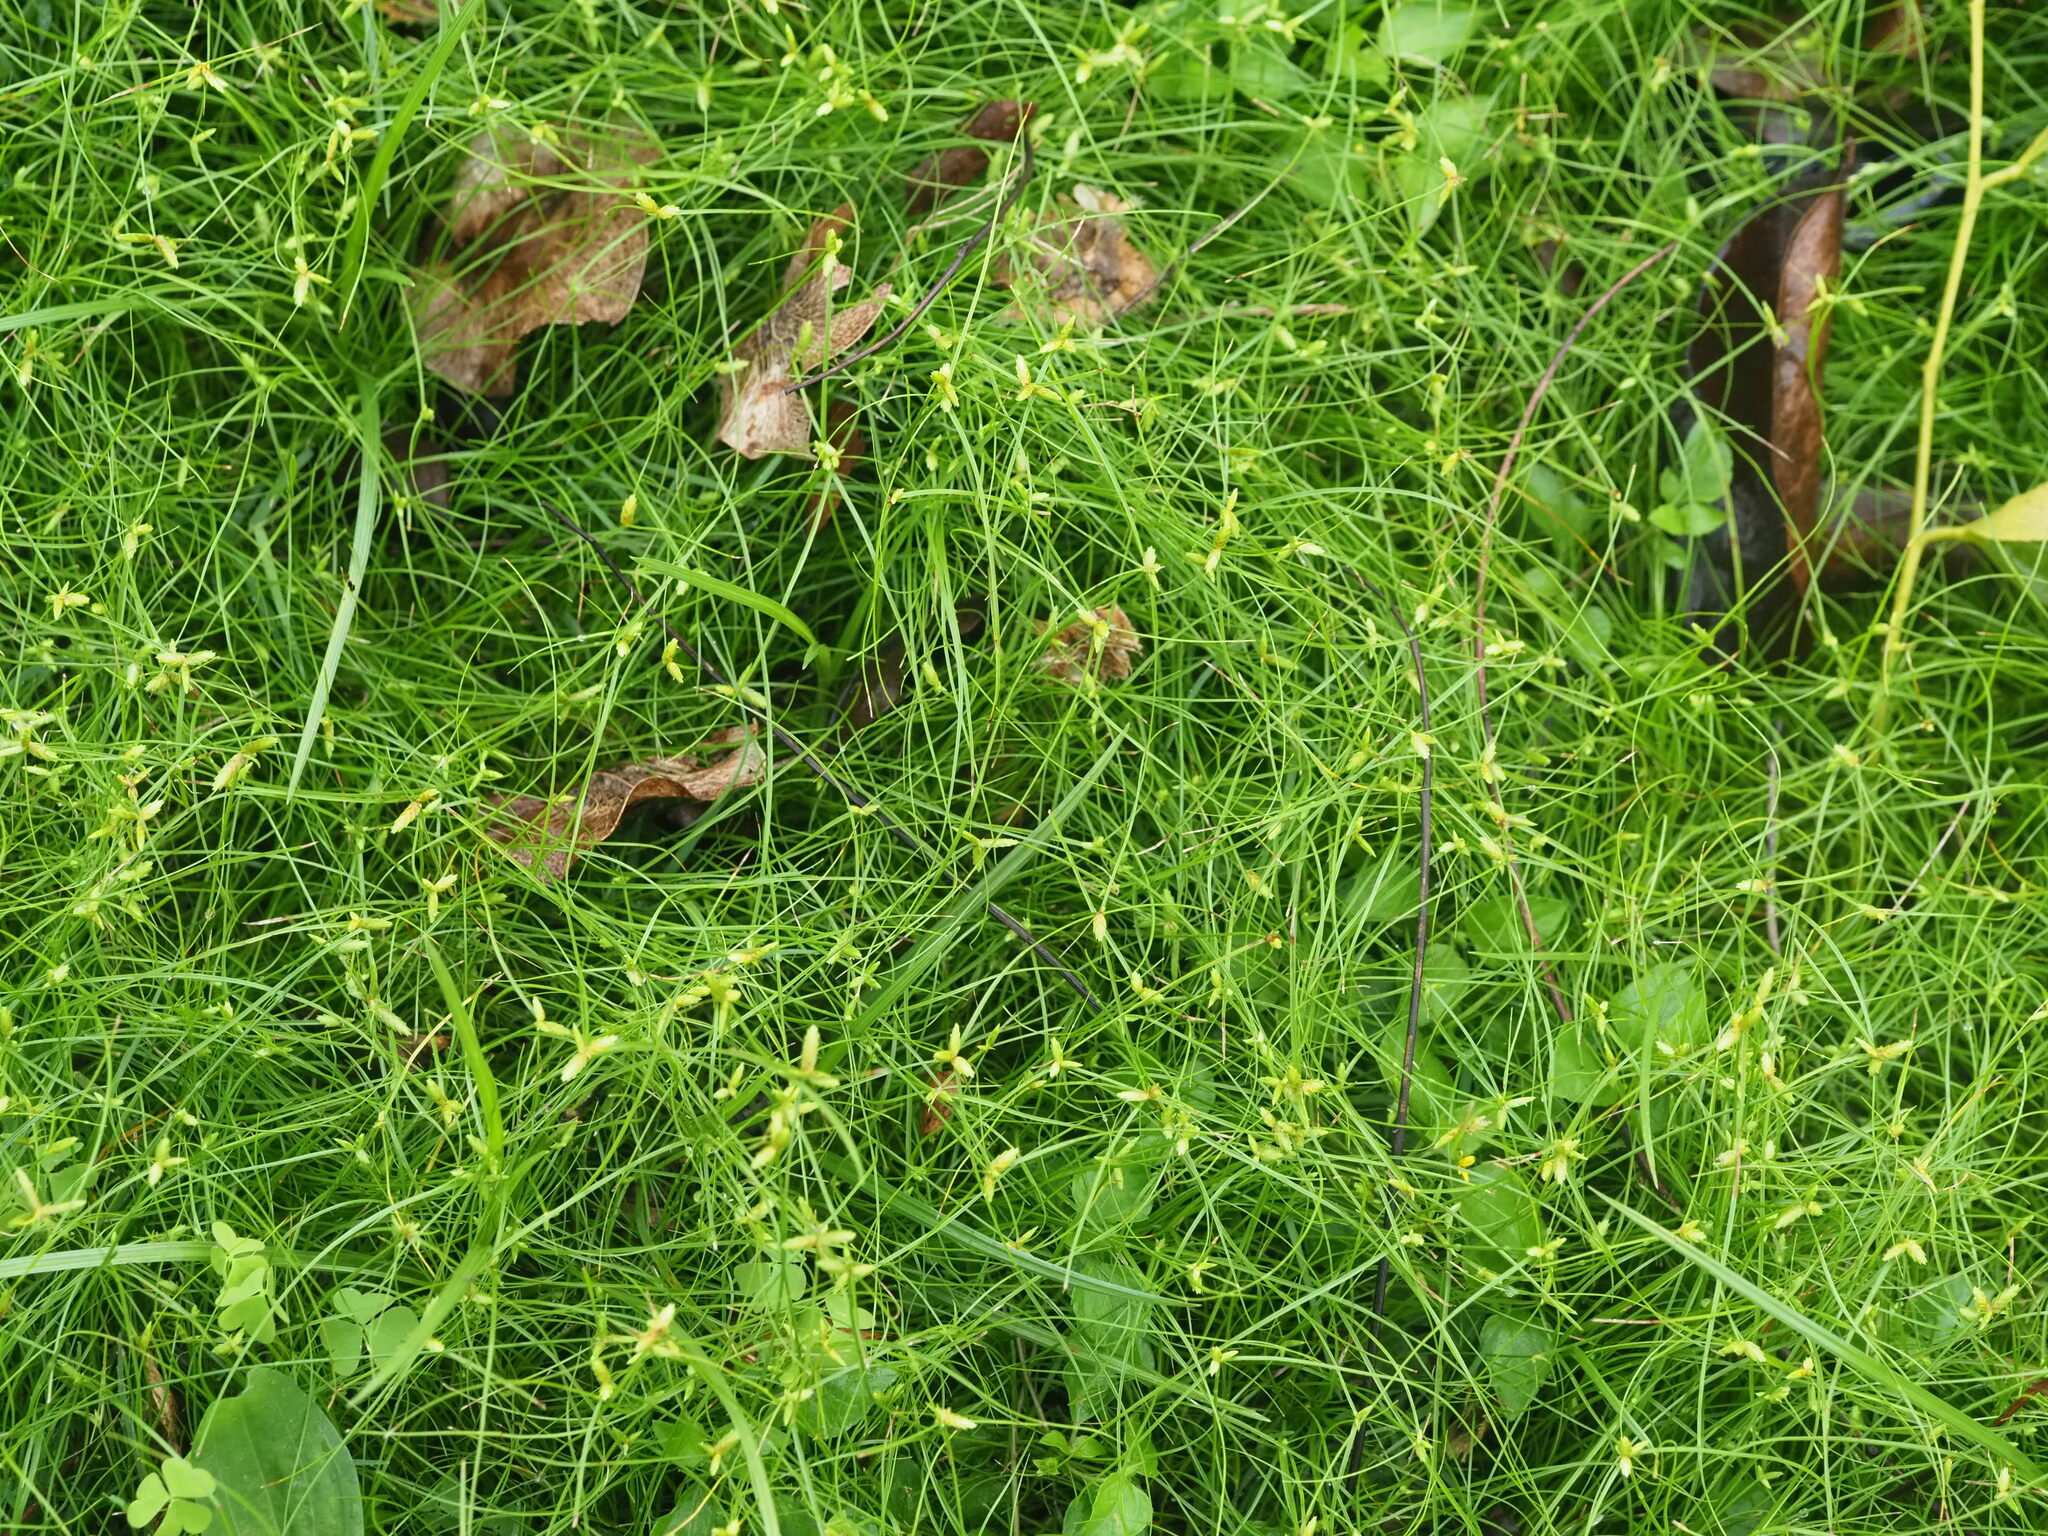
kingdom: Plantae
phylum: Tracheophyta
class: Liliopsida
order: Poales
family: Cyperaceae
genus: Cyperus
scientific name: Cyperus gracilis
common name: Slimjim flatsedge
